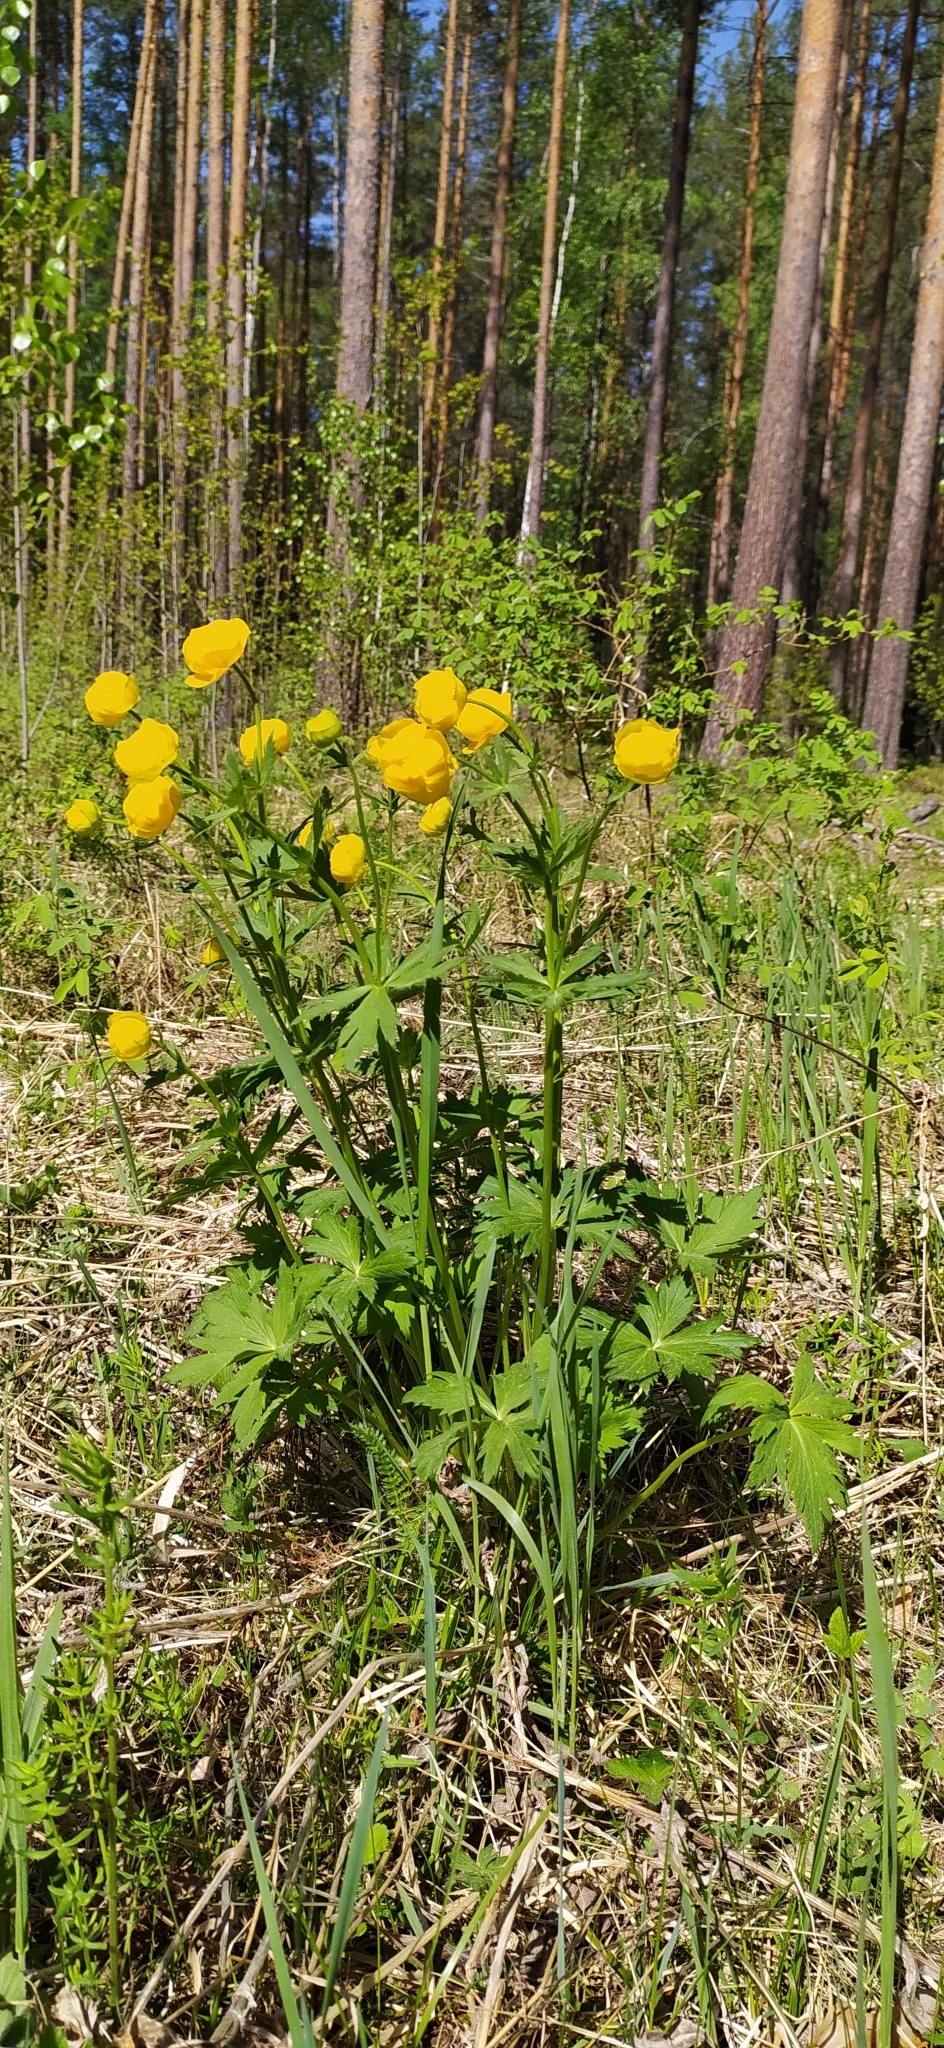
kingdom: Plantae
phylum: Tracheophyta
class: Magnoliopsida
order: Ranunculales
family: Ranunculaceae
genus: Trollius
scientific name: Trollius europaeus
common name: European globeflower
